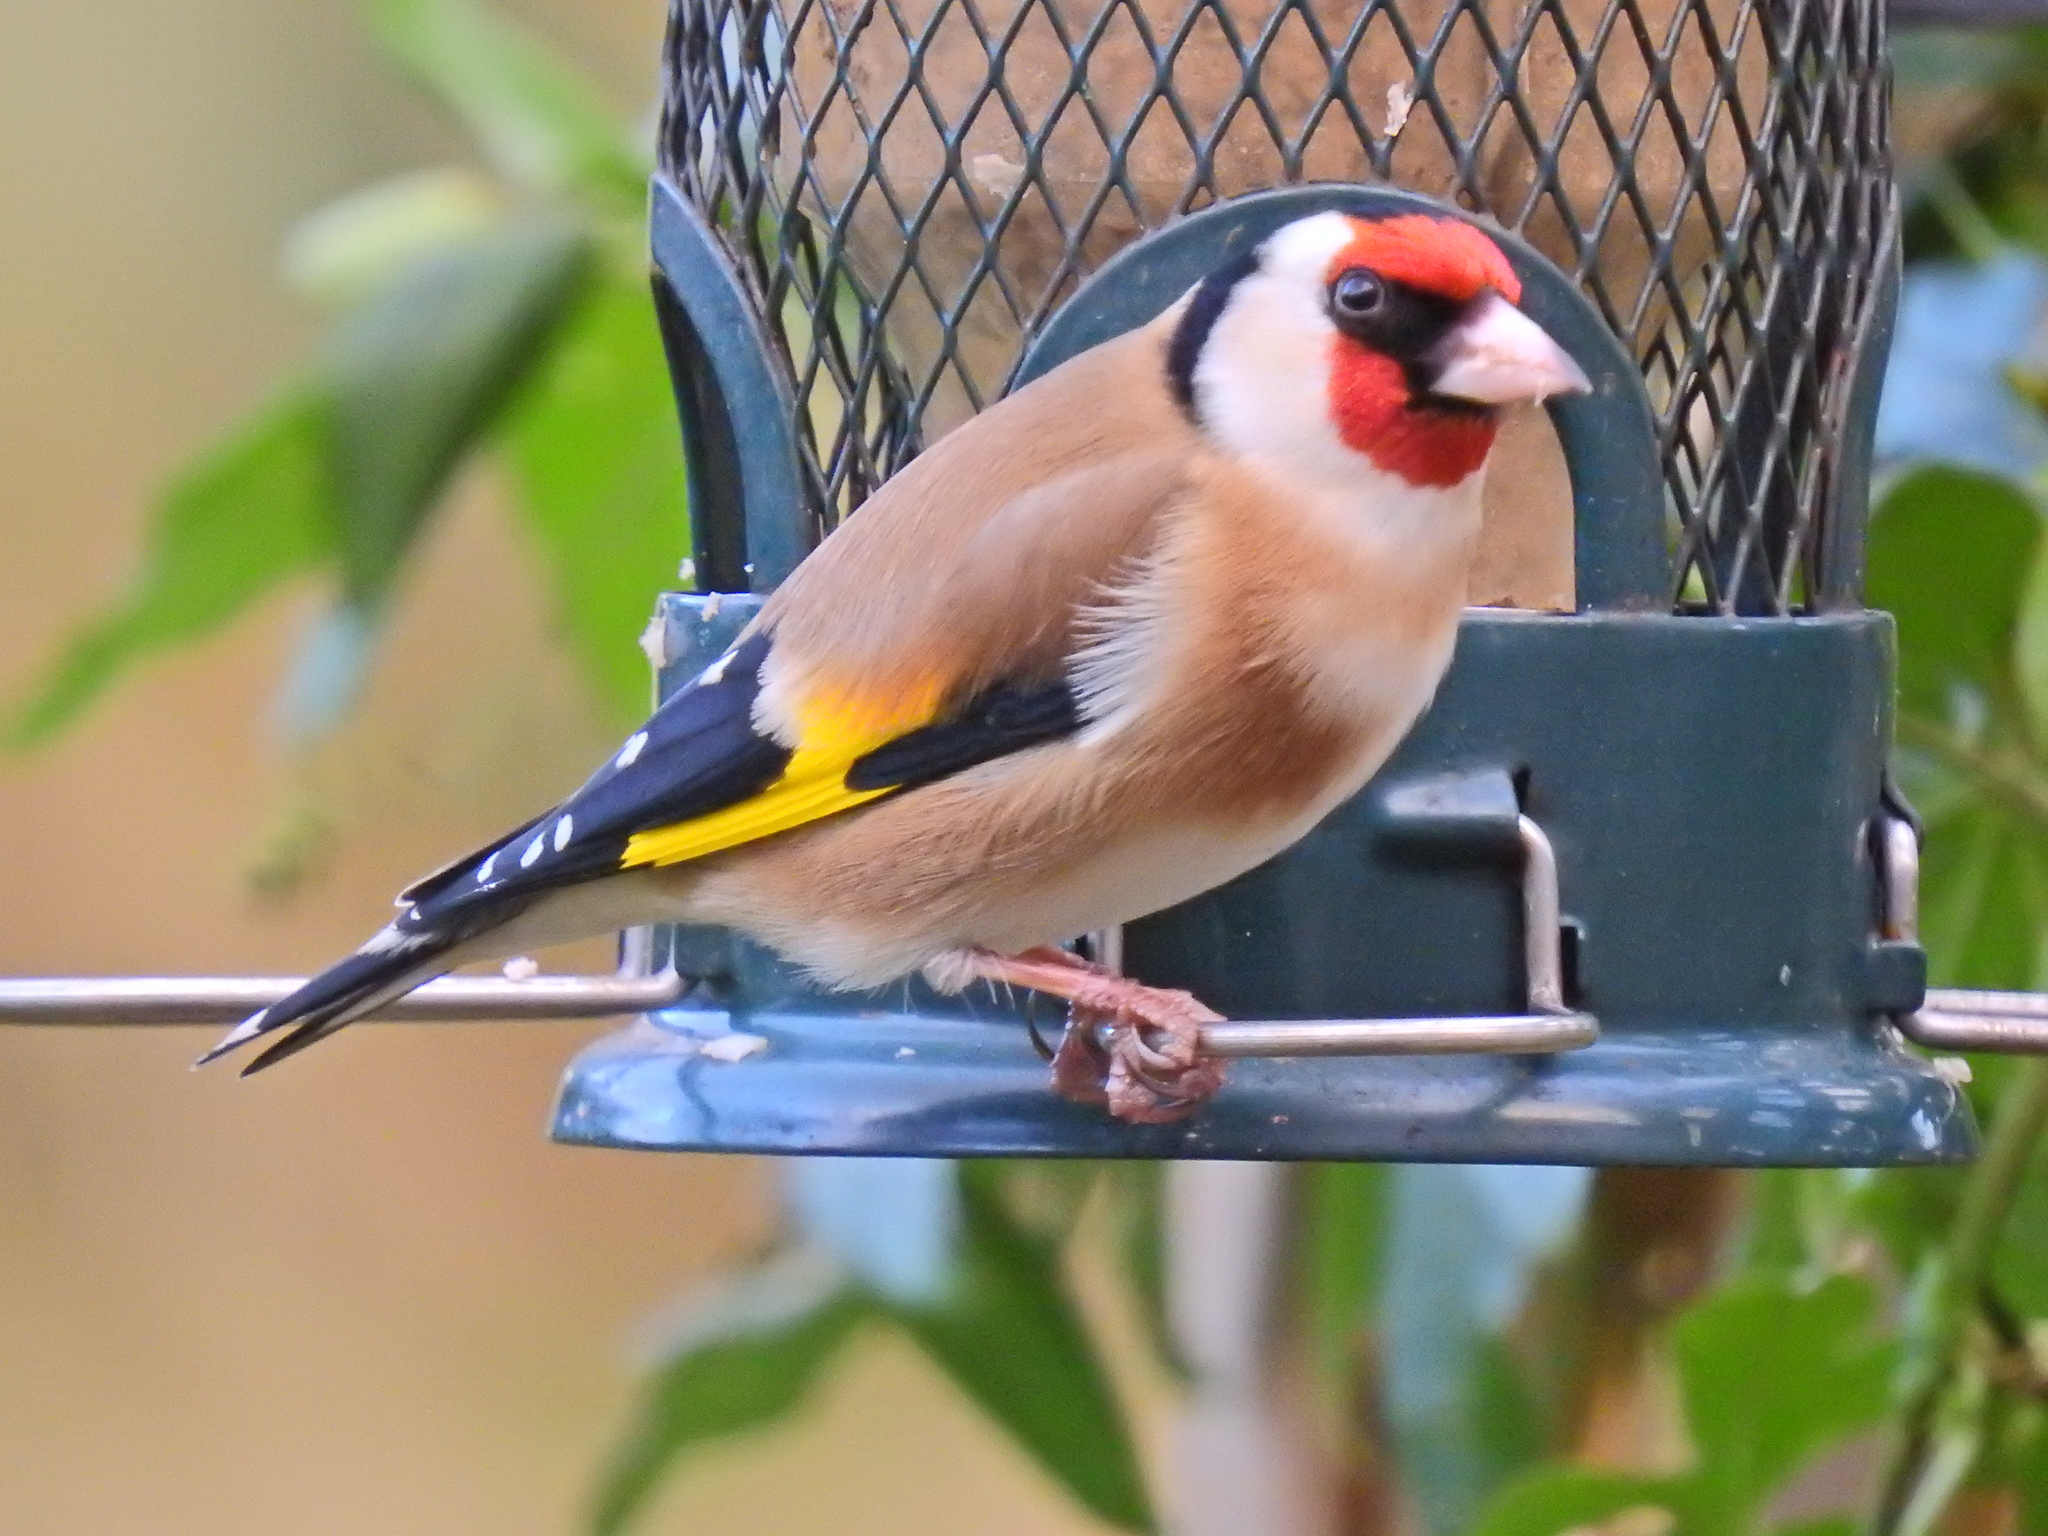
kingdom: Animalia
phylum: Chordata
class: Aves
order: Passeriformes
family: Fringillidae
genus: Carduelis
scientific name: Carduelis carduelis
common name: European goldfinch
